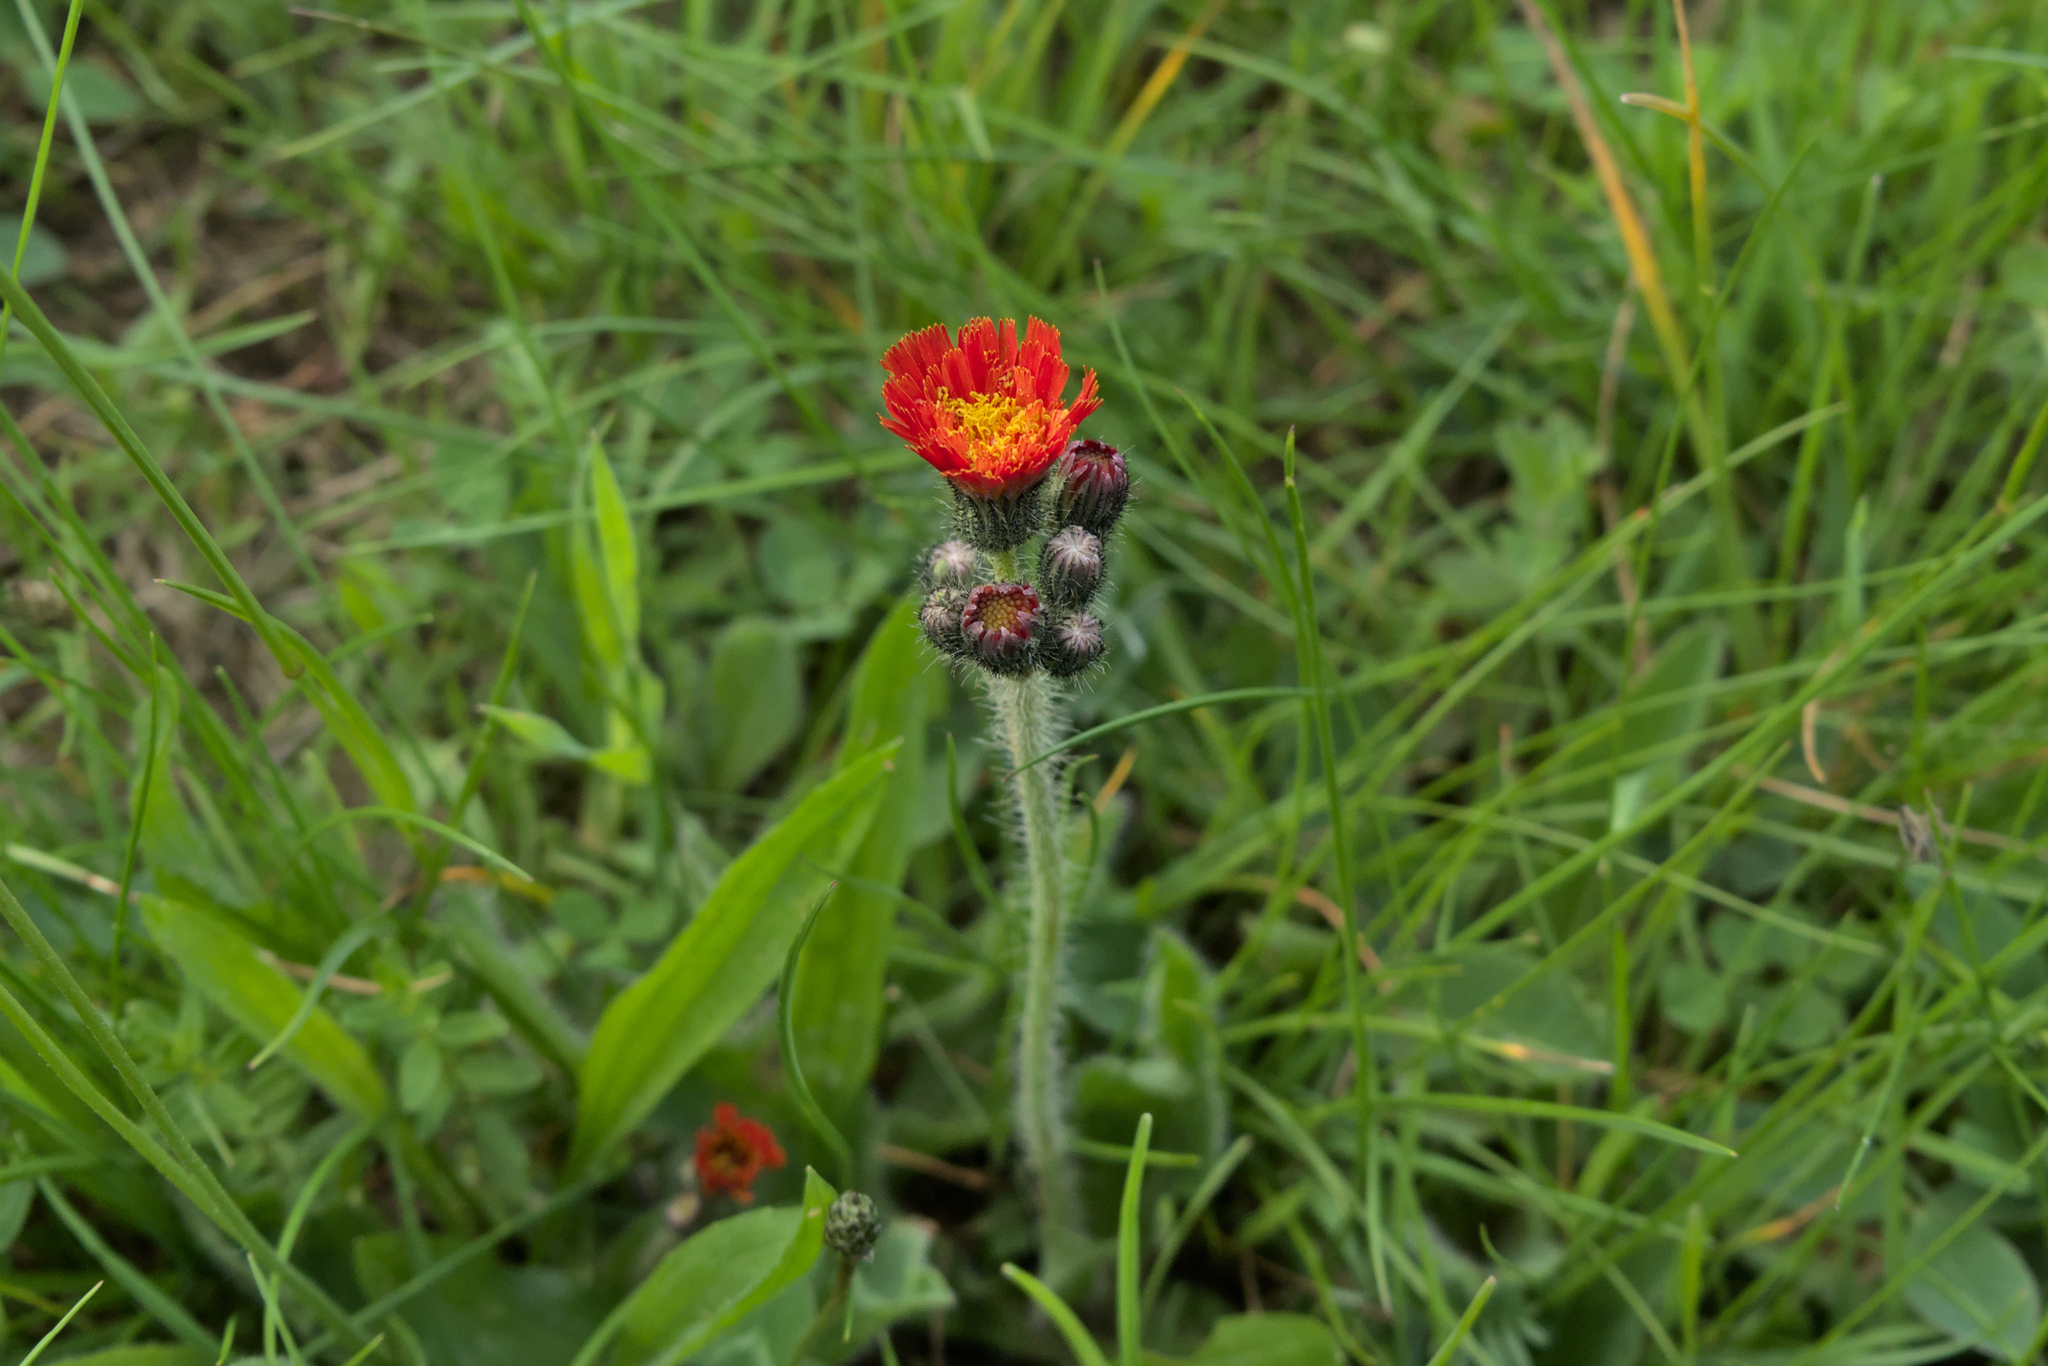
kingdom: Plantae
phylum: Tracheophyta
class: Magnoliopsida
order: Asterales
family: Asteraceae
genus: Pilosella
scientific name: Pilosella aurantiaca
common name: Fox-and-cubs
